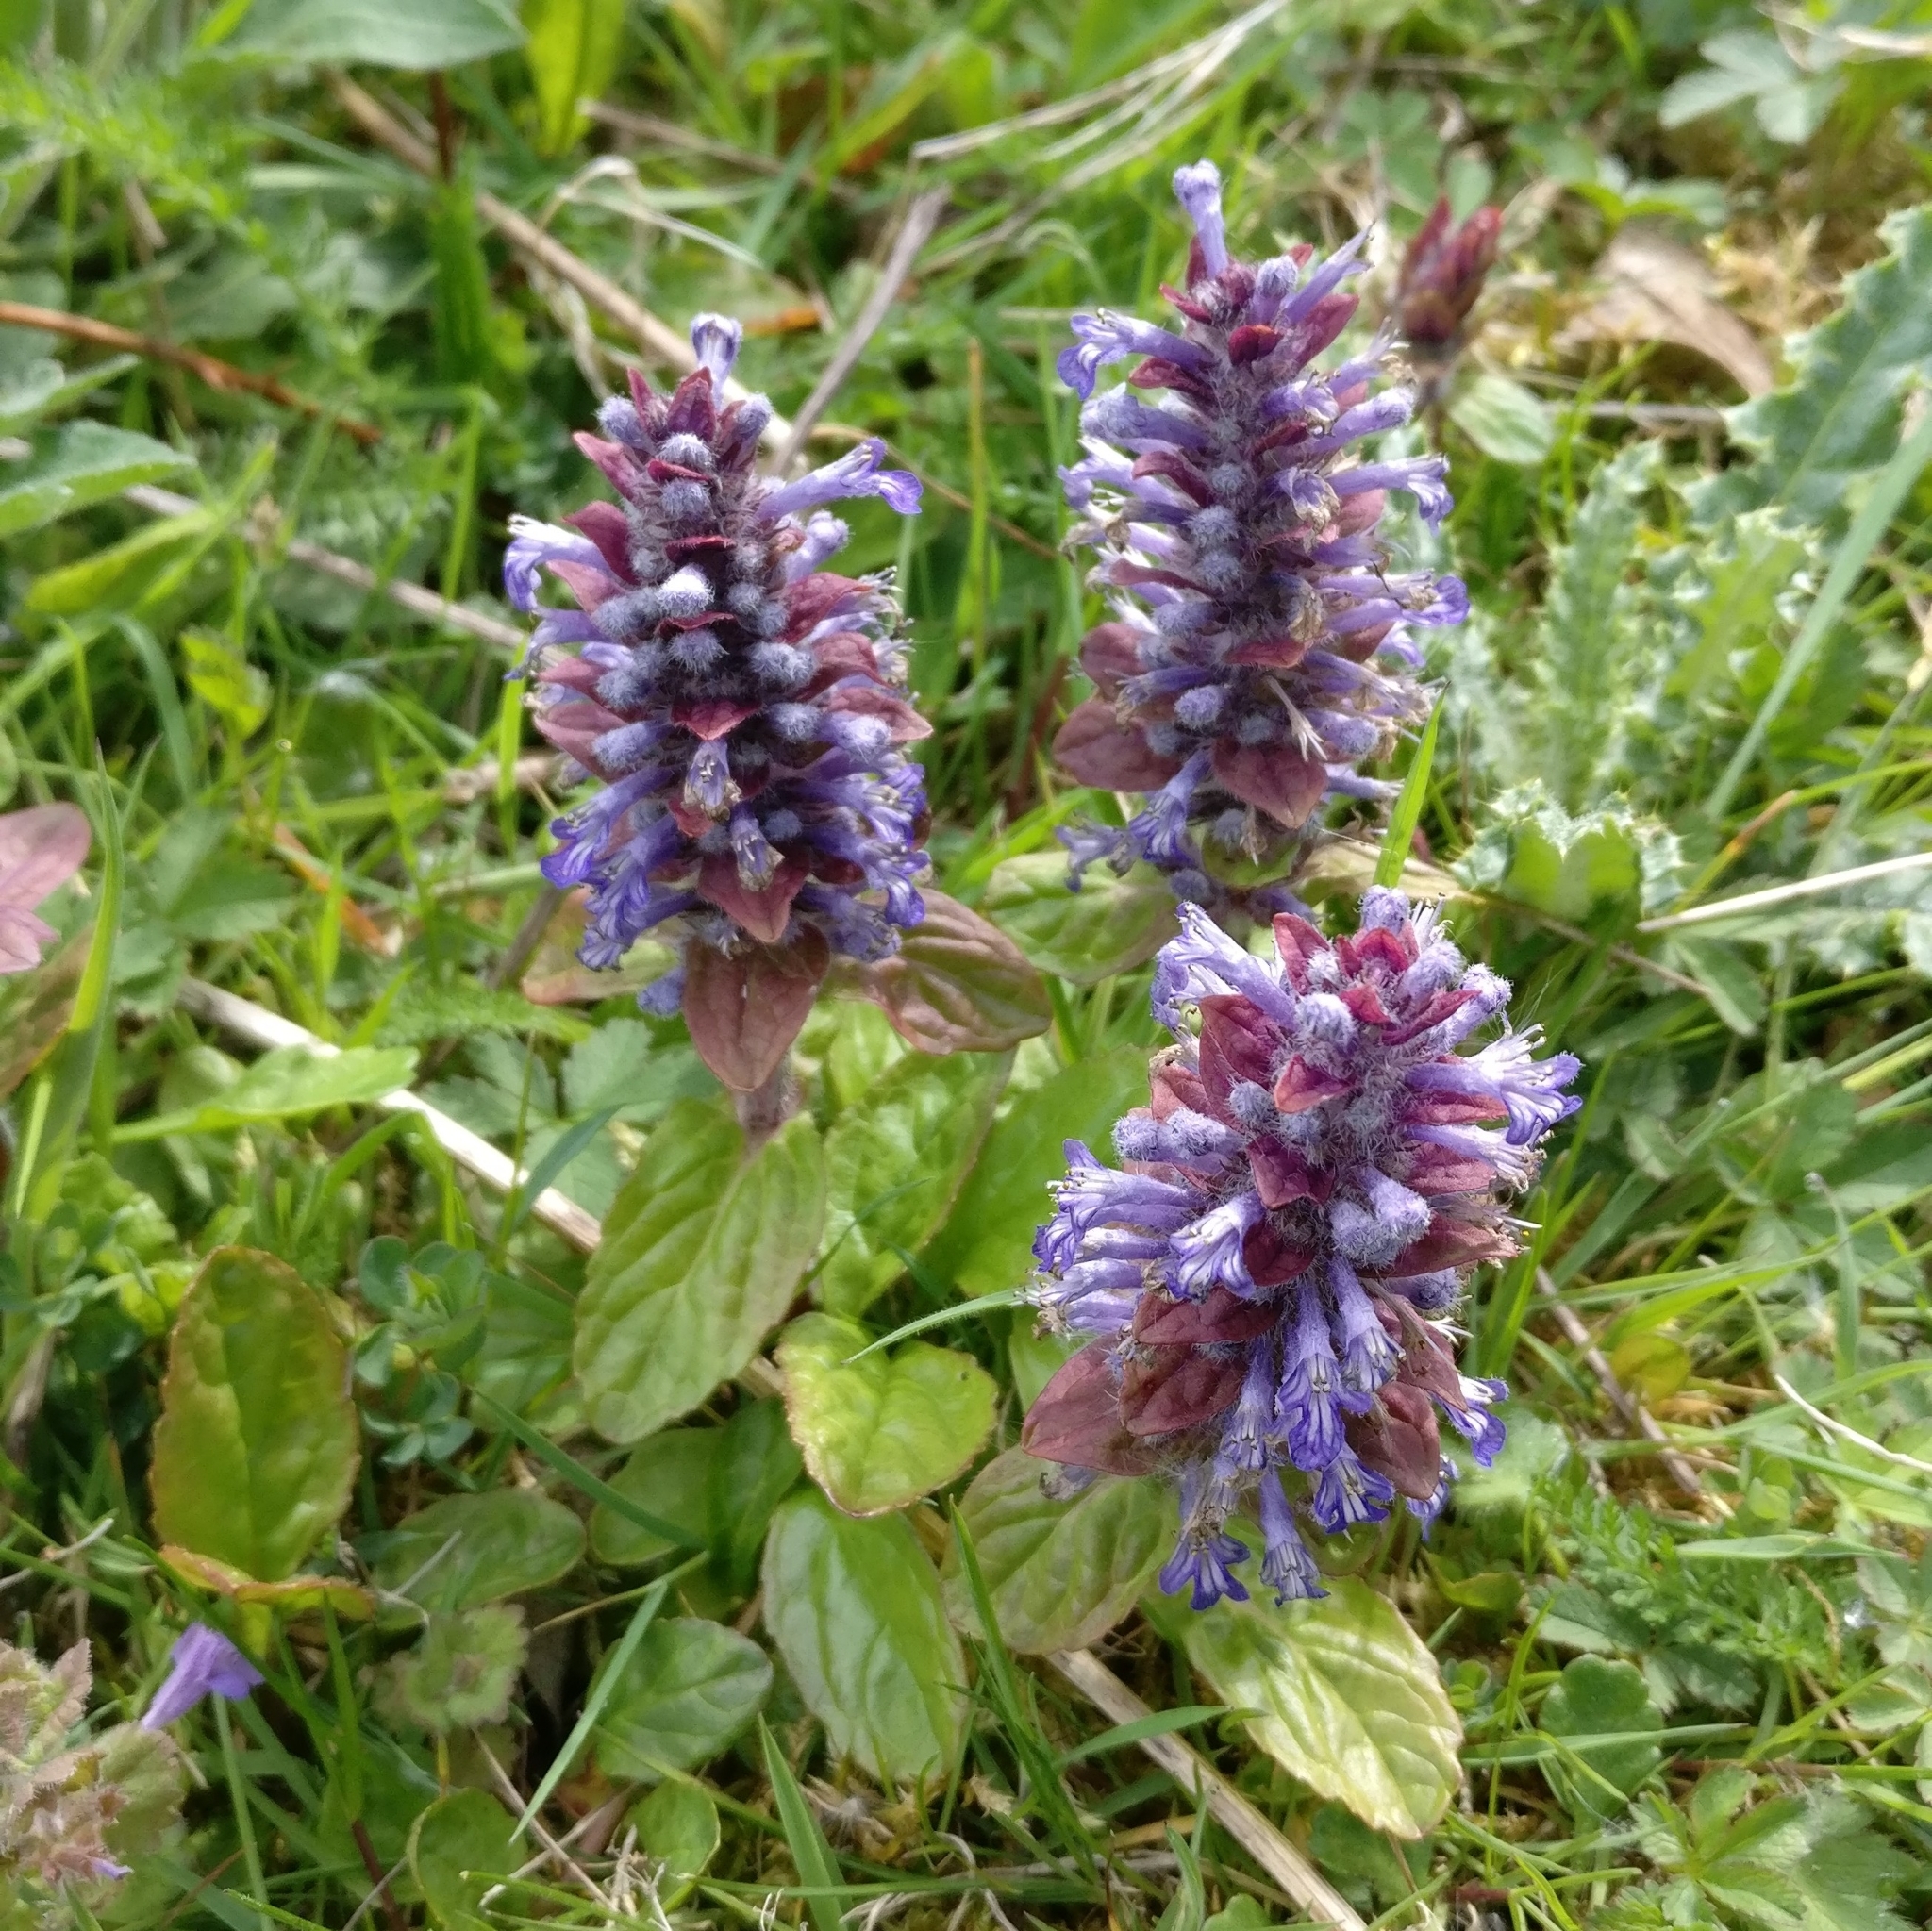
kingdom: Plantae
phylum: Tracheophyta
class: Magnoliopsida
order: Lamiales
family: Lamiaceae
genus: Ajuga
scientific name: Ajuga reptans
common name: Bugle
